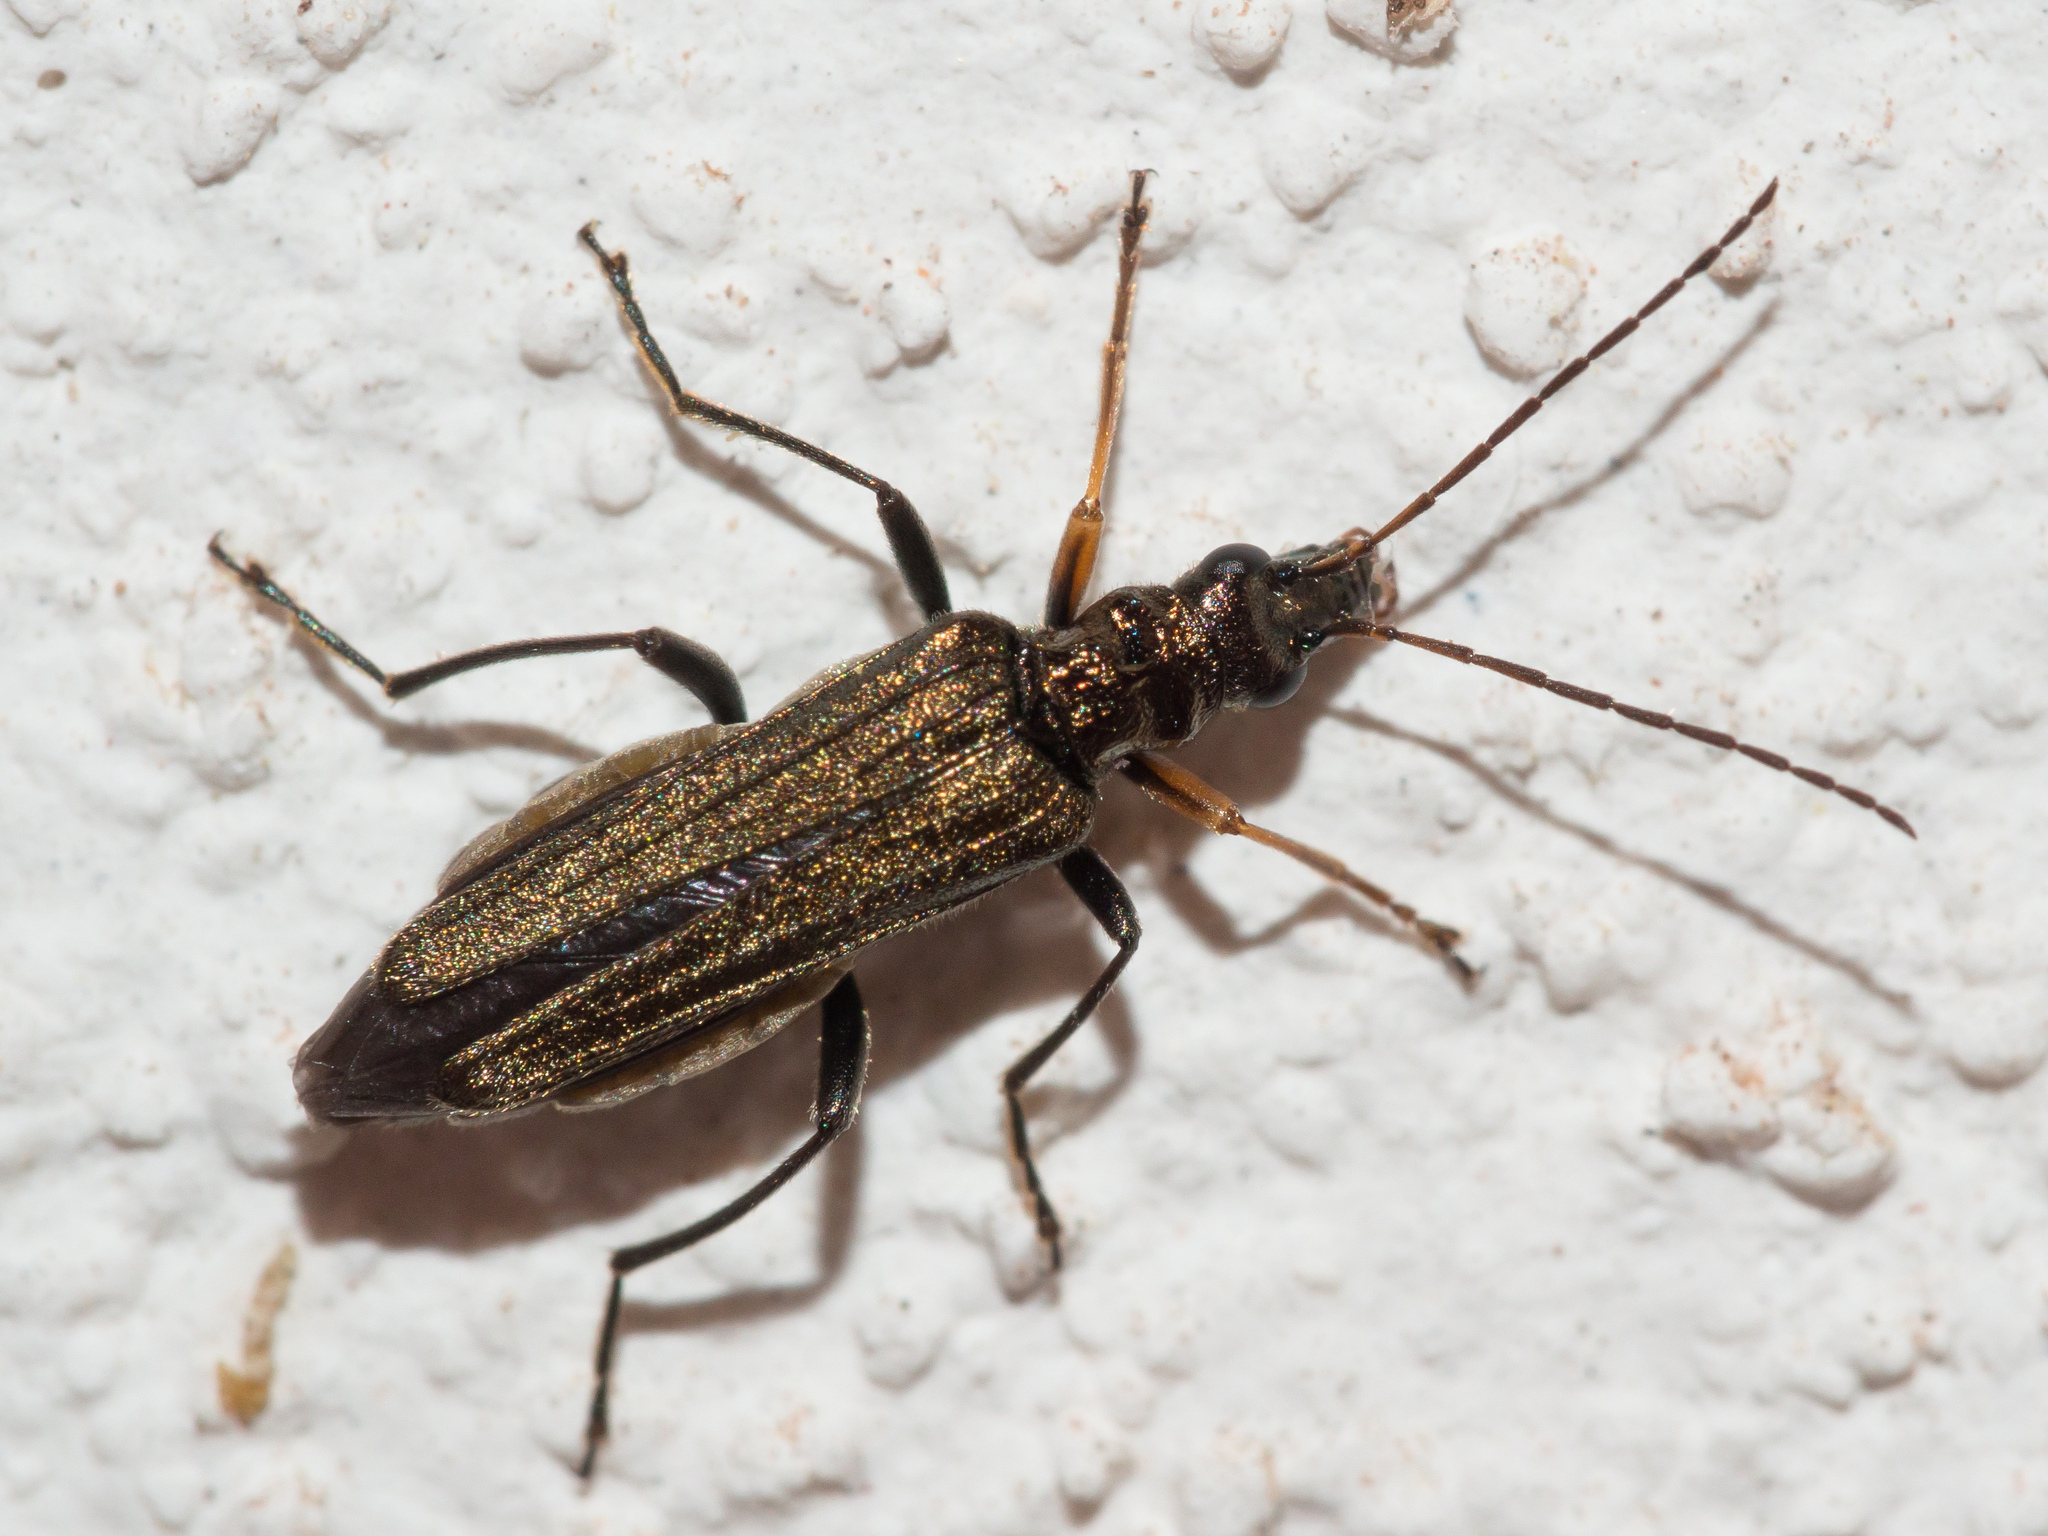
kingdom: Animalia
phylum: Arthropoda
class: Insecta
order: Coleoptera
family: Oedemeridae
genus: Oedemera
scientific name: Oedemera flavipes
